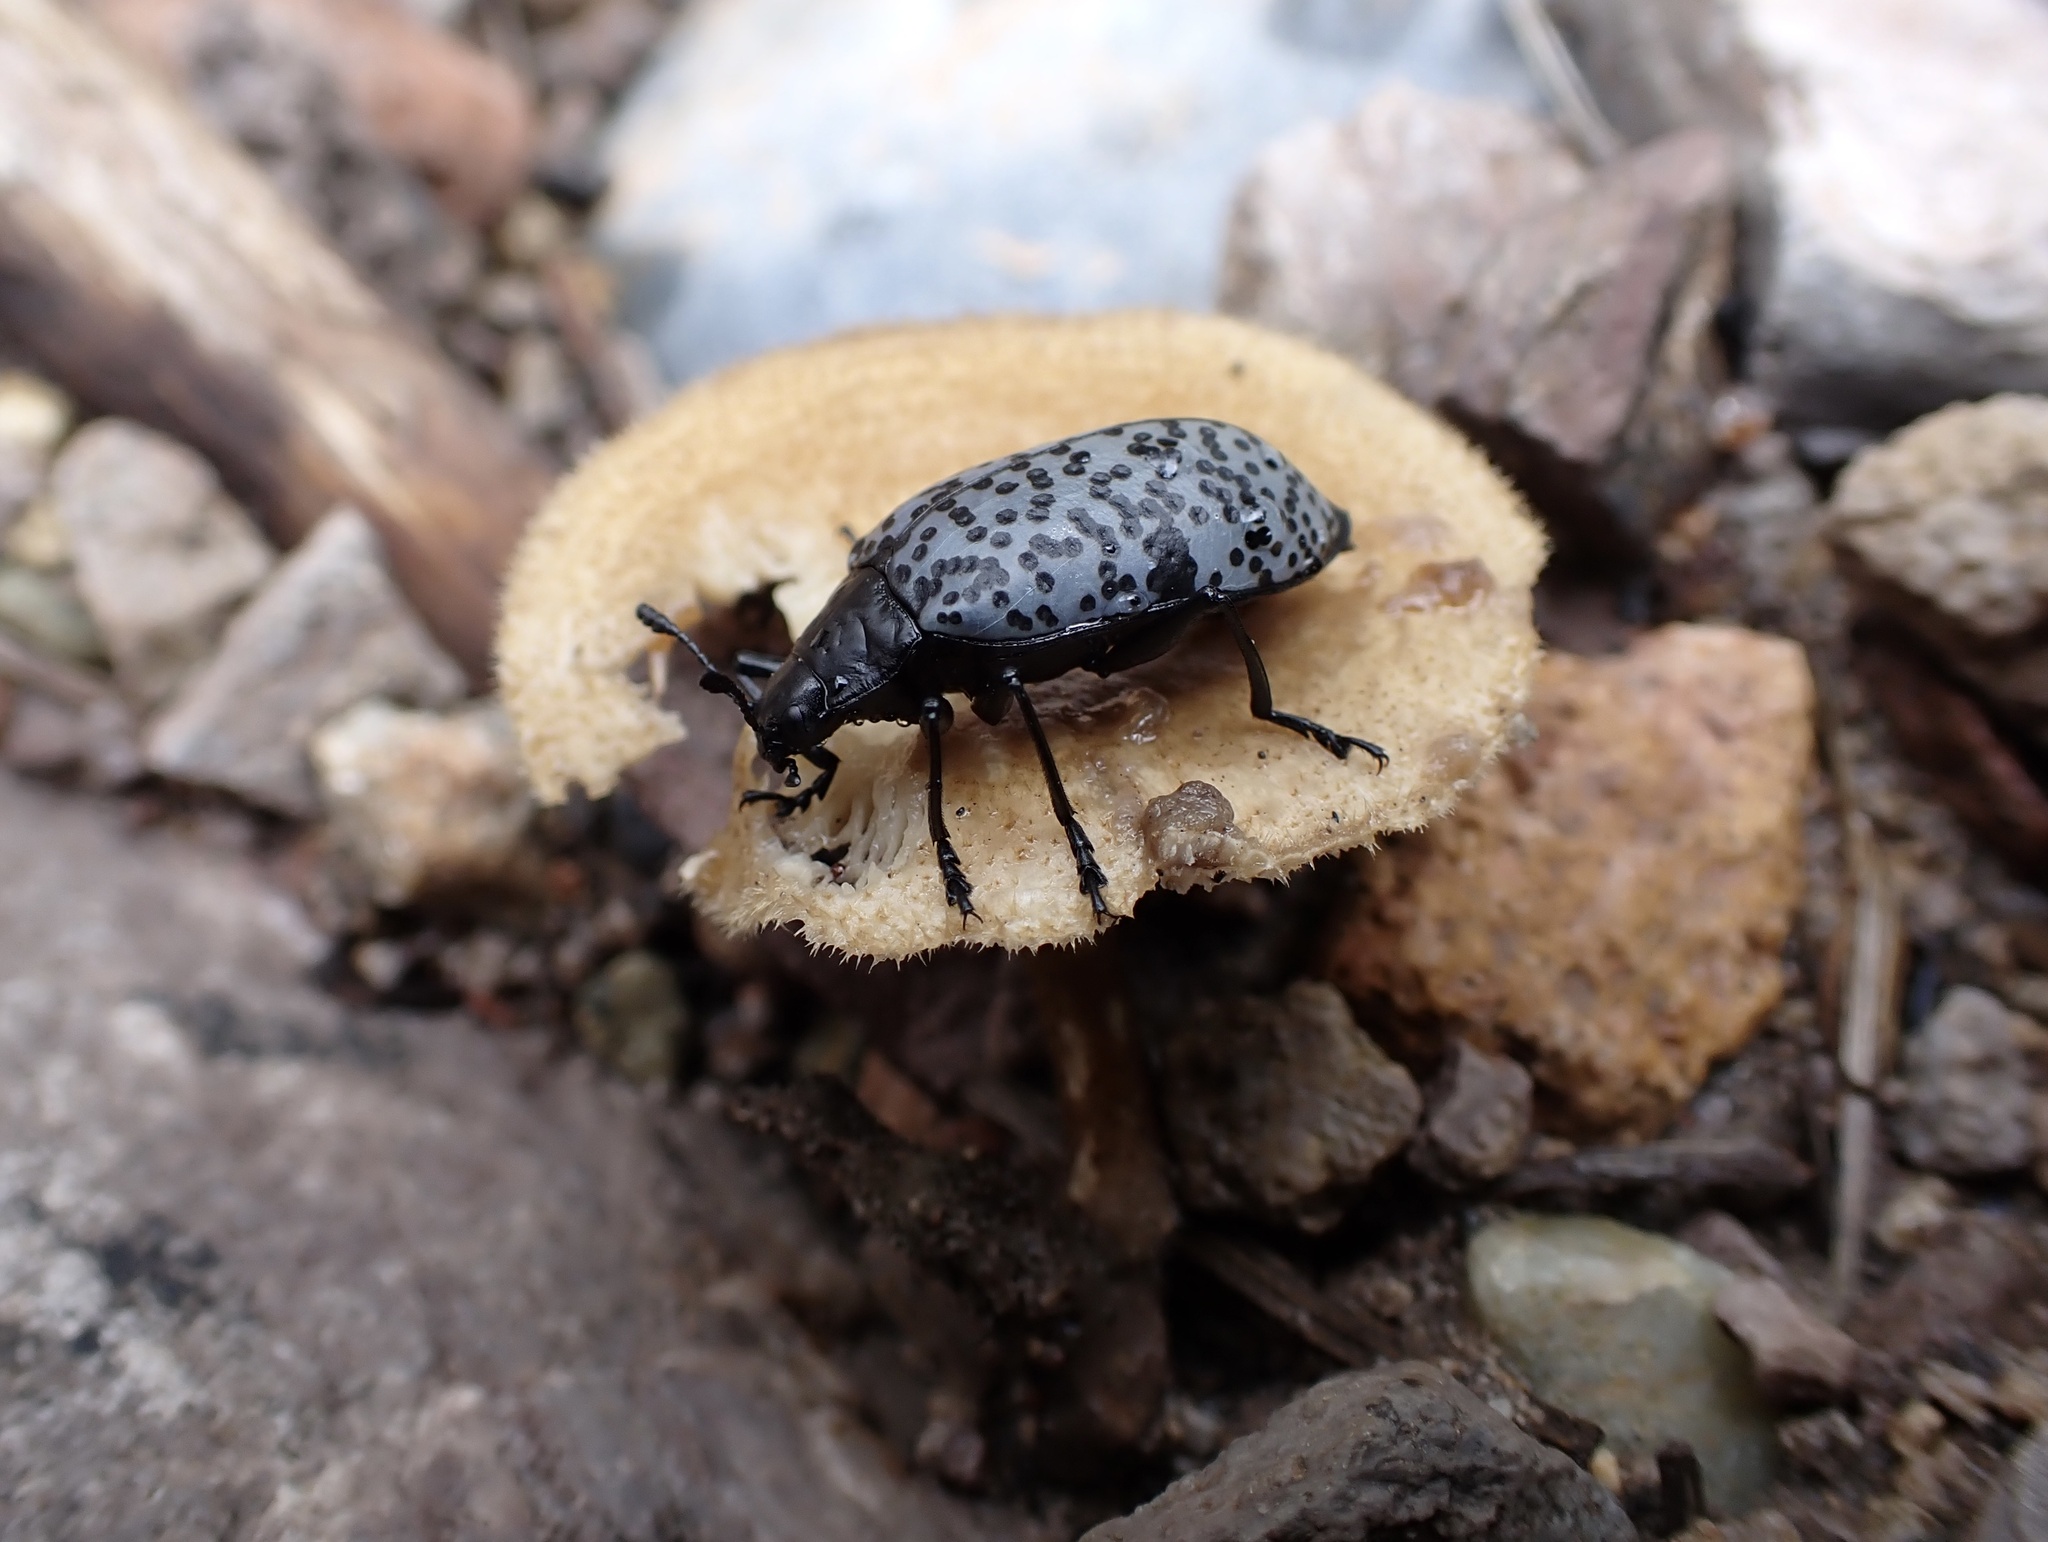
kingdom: Animalia
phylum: Arthropoda
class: Insecta
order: Coleoptera
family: Erotylidae
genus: Gibbifer
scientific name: Gibbifer californicus
